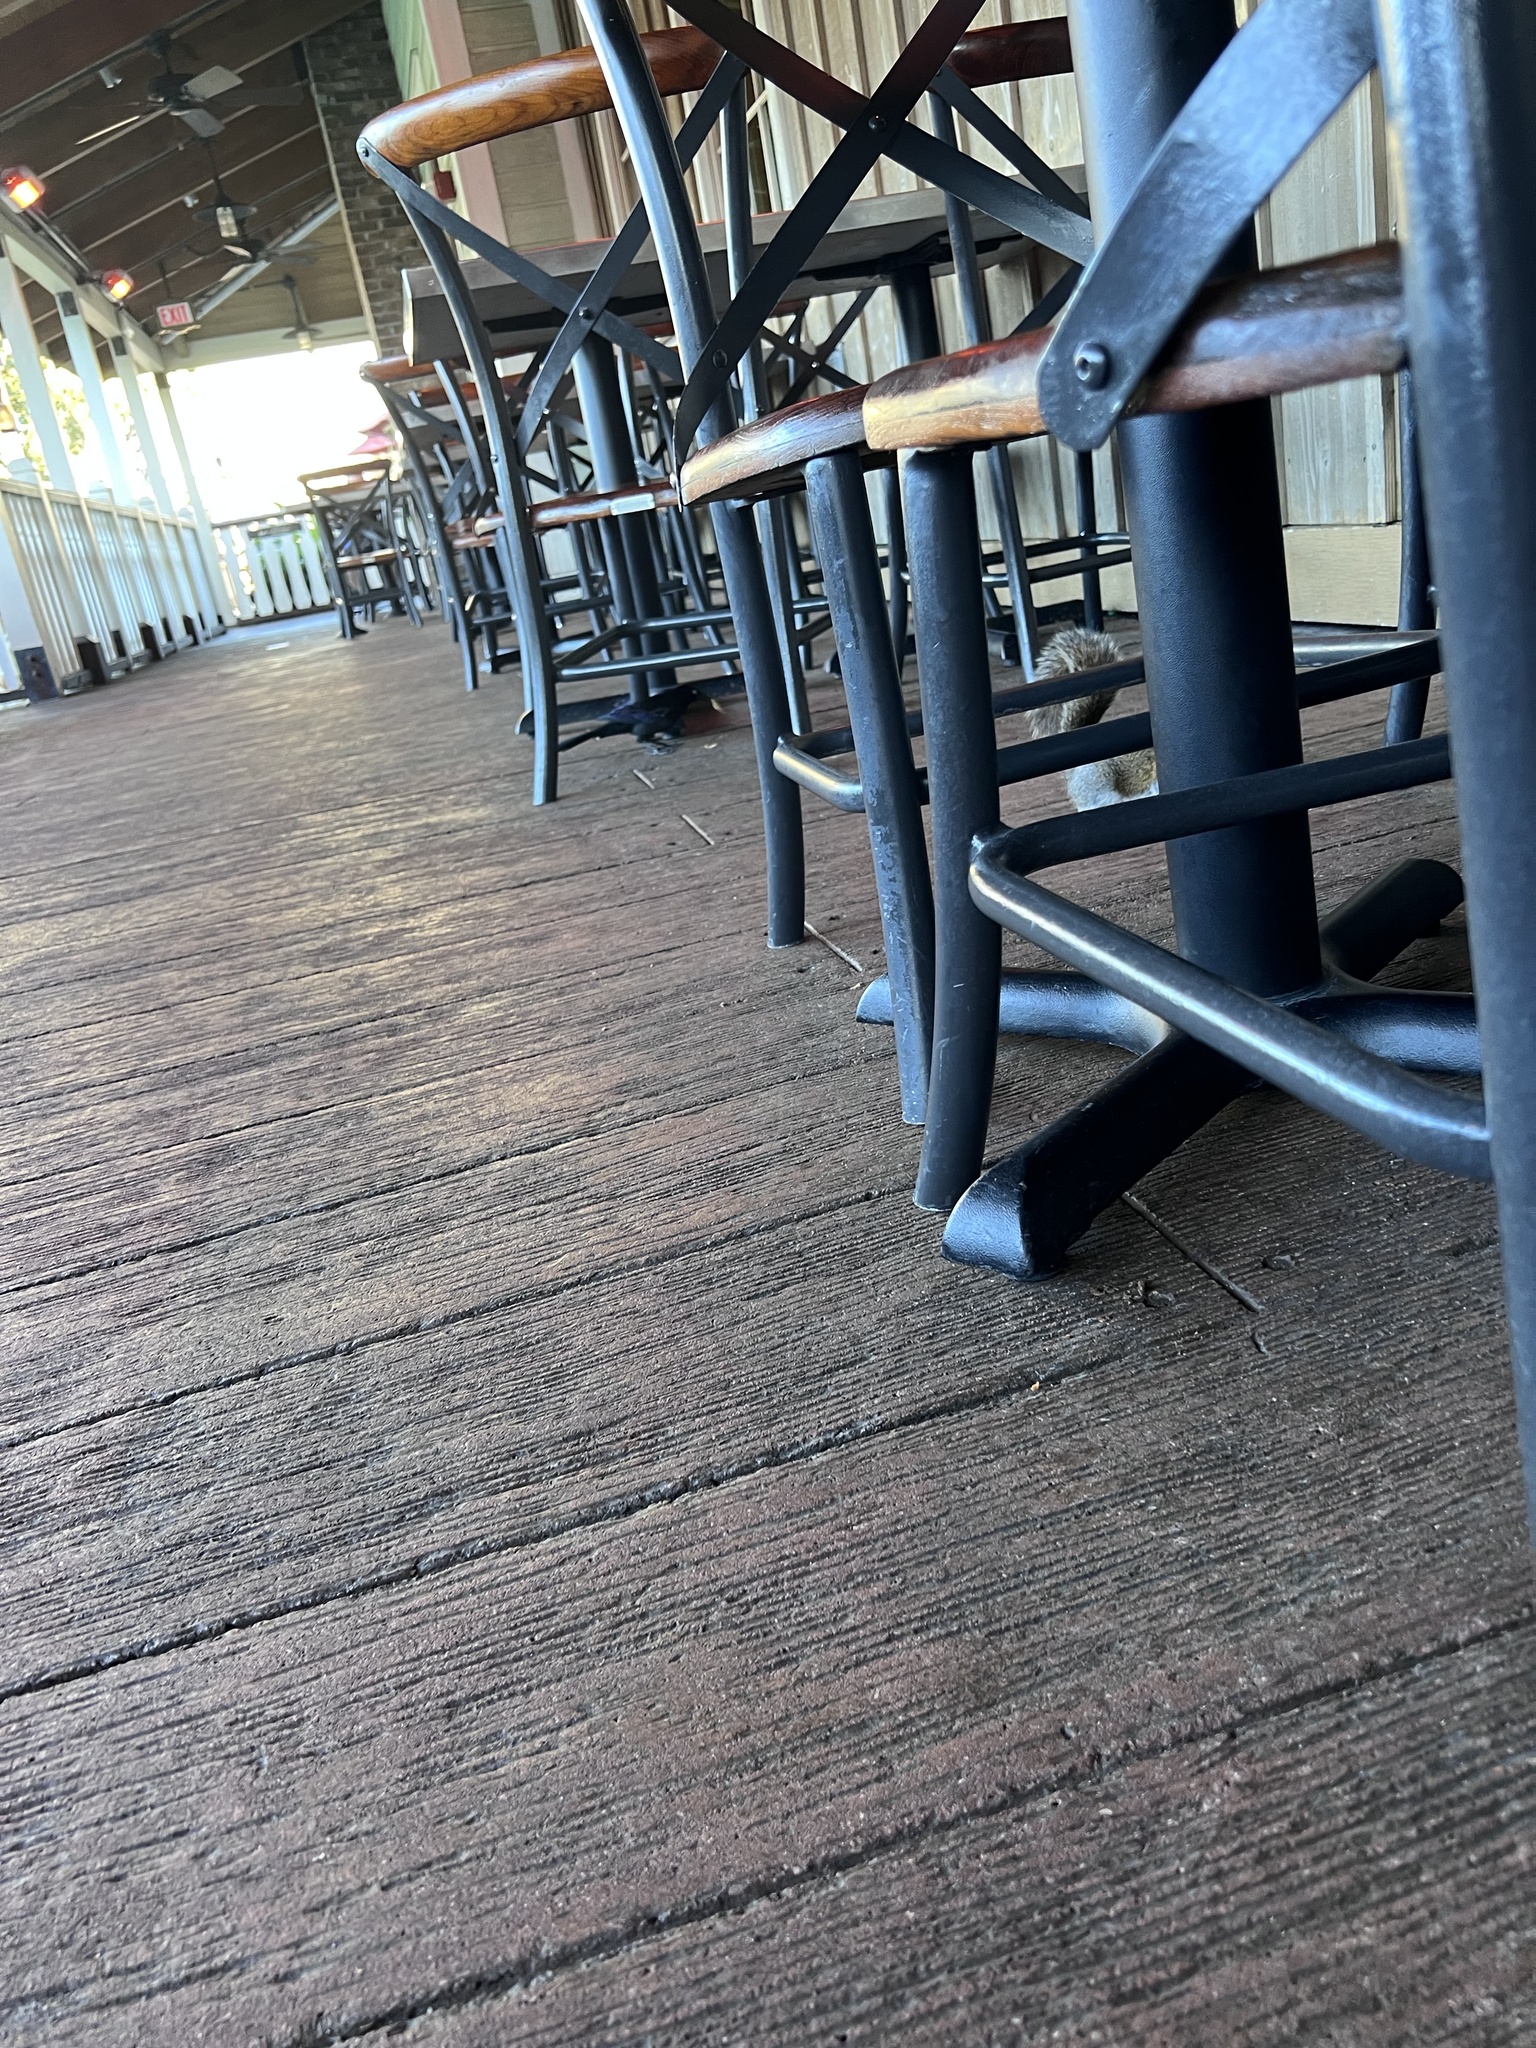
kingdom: Animalia
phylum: Chordata
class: Aves
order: Passeriformes
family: Icteridae
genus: Quiscalus
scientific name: Quiscalus major
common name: Boat-tailed grackle
